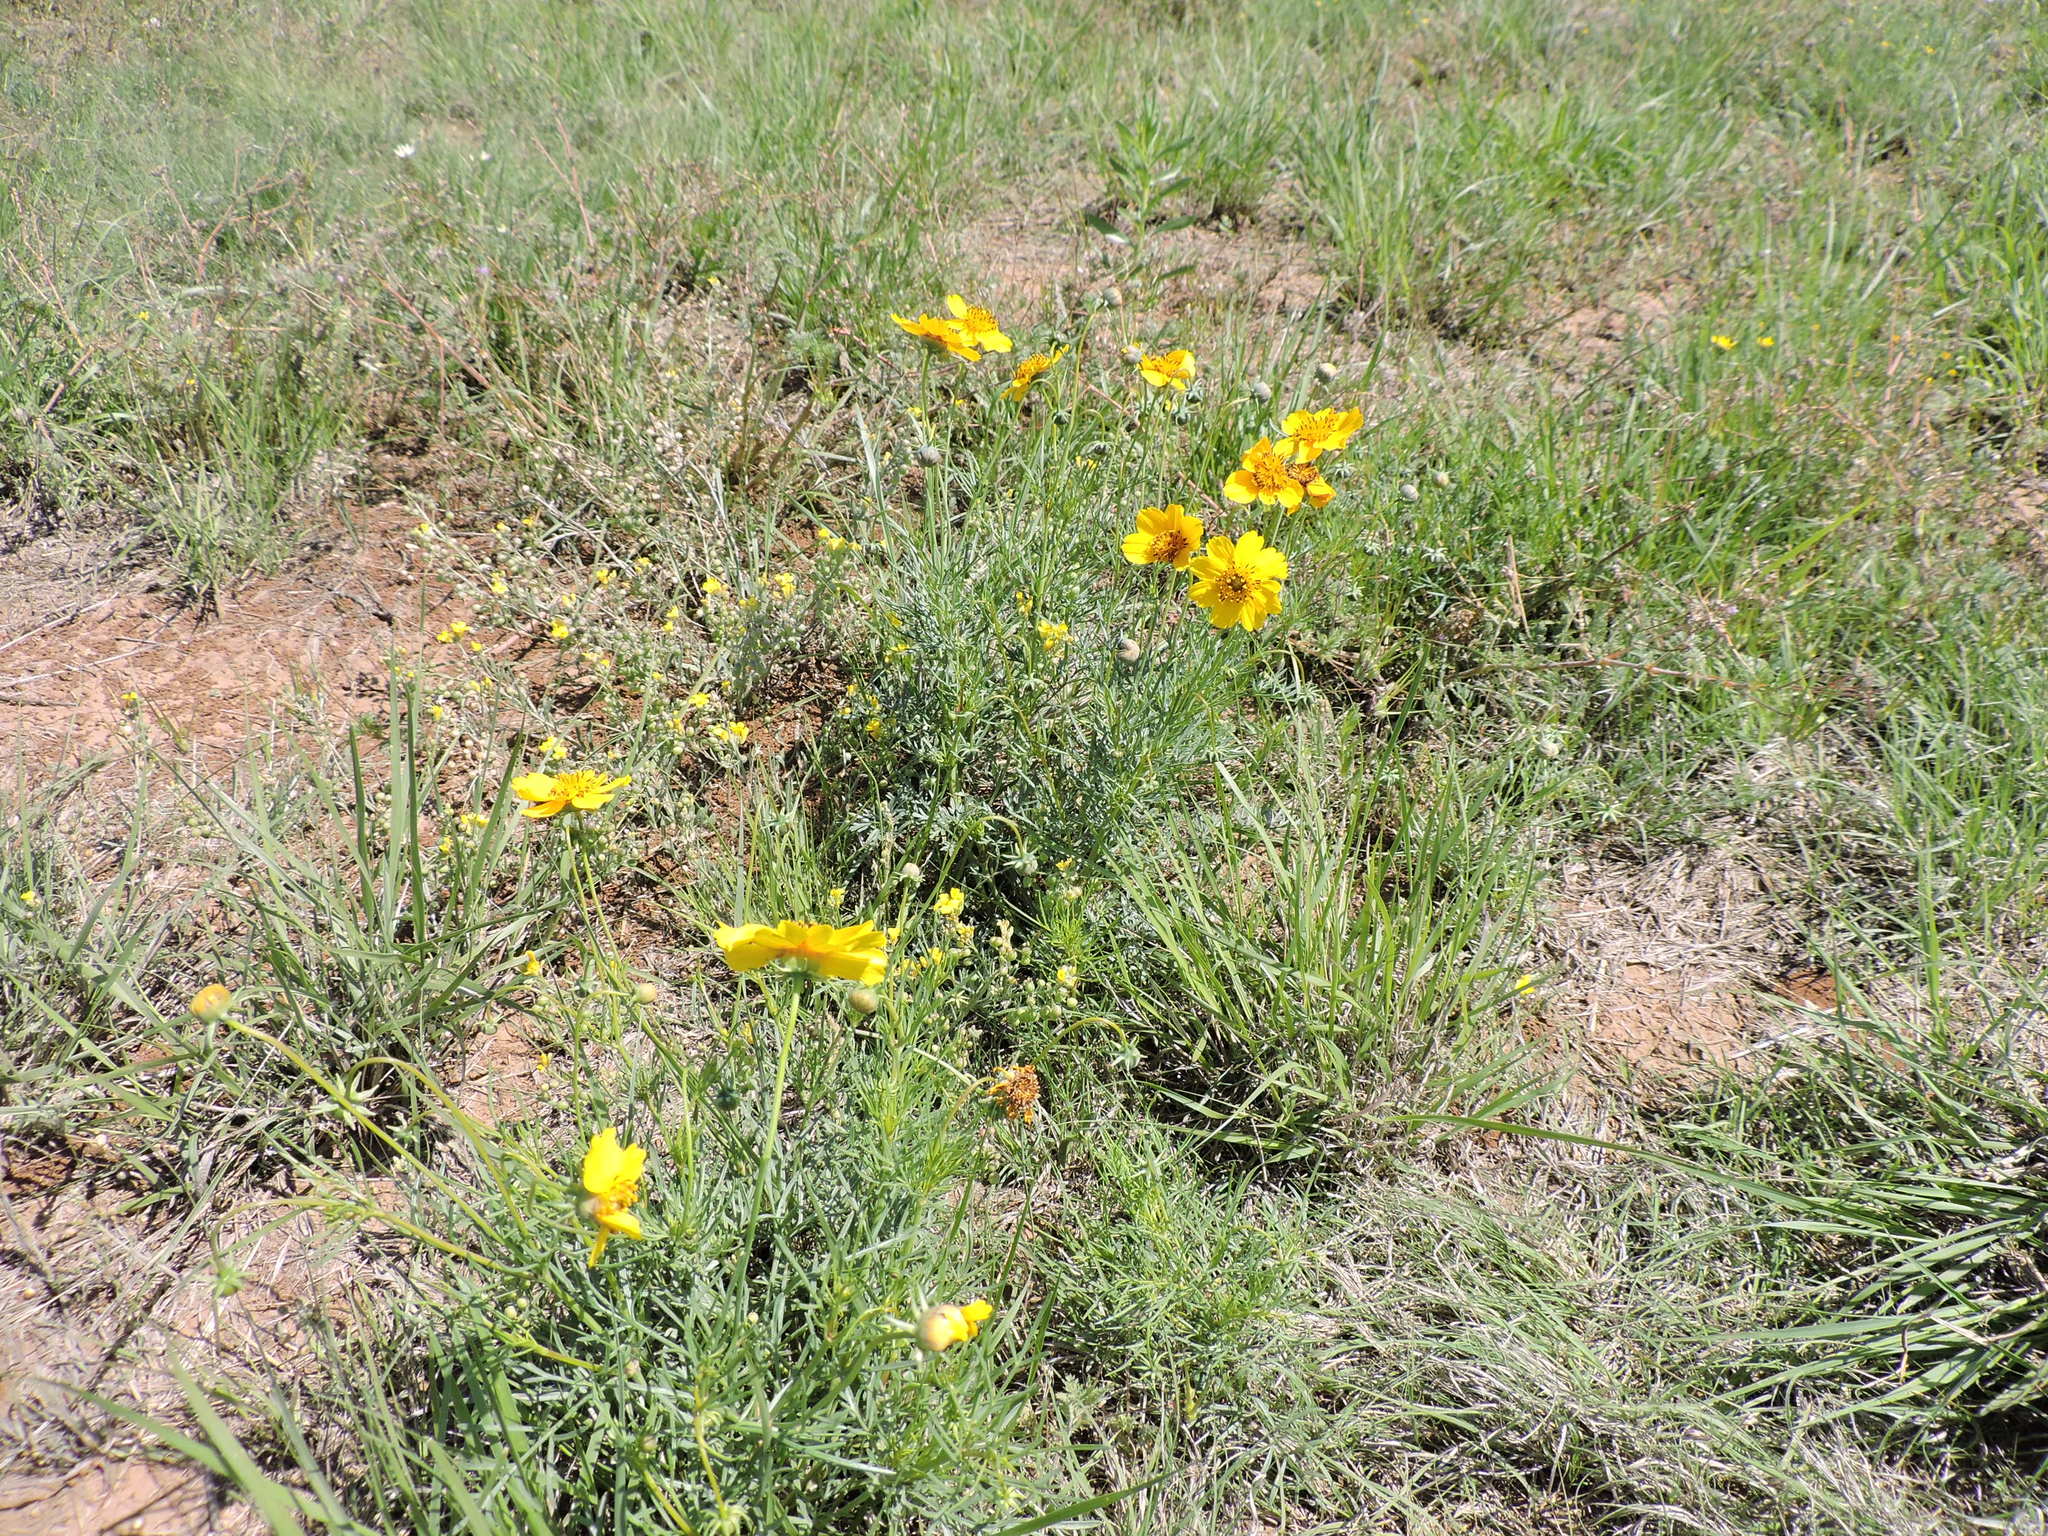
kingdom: Plantae
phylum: Tracheophyta
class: Magnoliopsida
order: Asterales
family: Asteraceae
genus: Thelesperma
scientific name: Thelesperma filifolium
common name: Stiff greenthread
